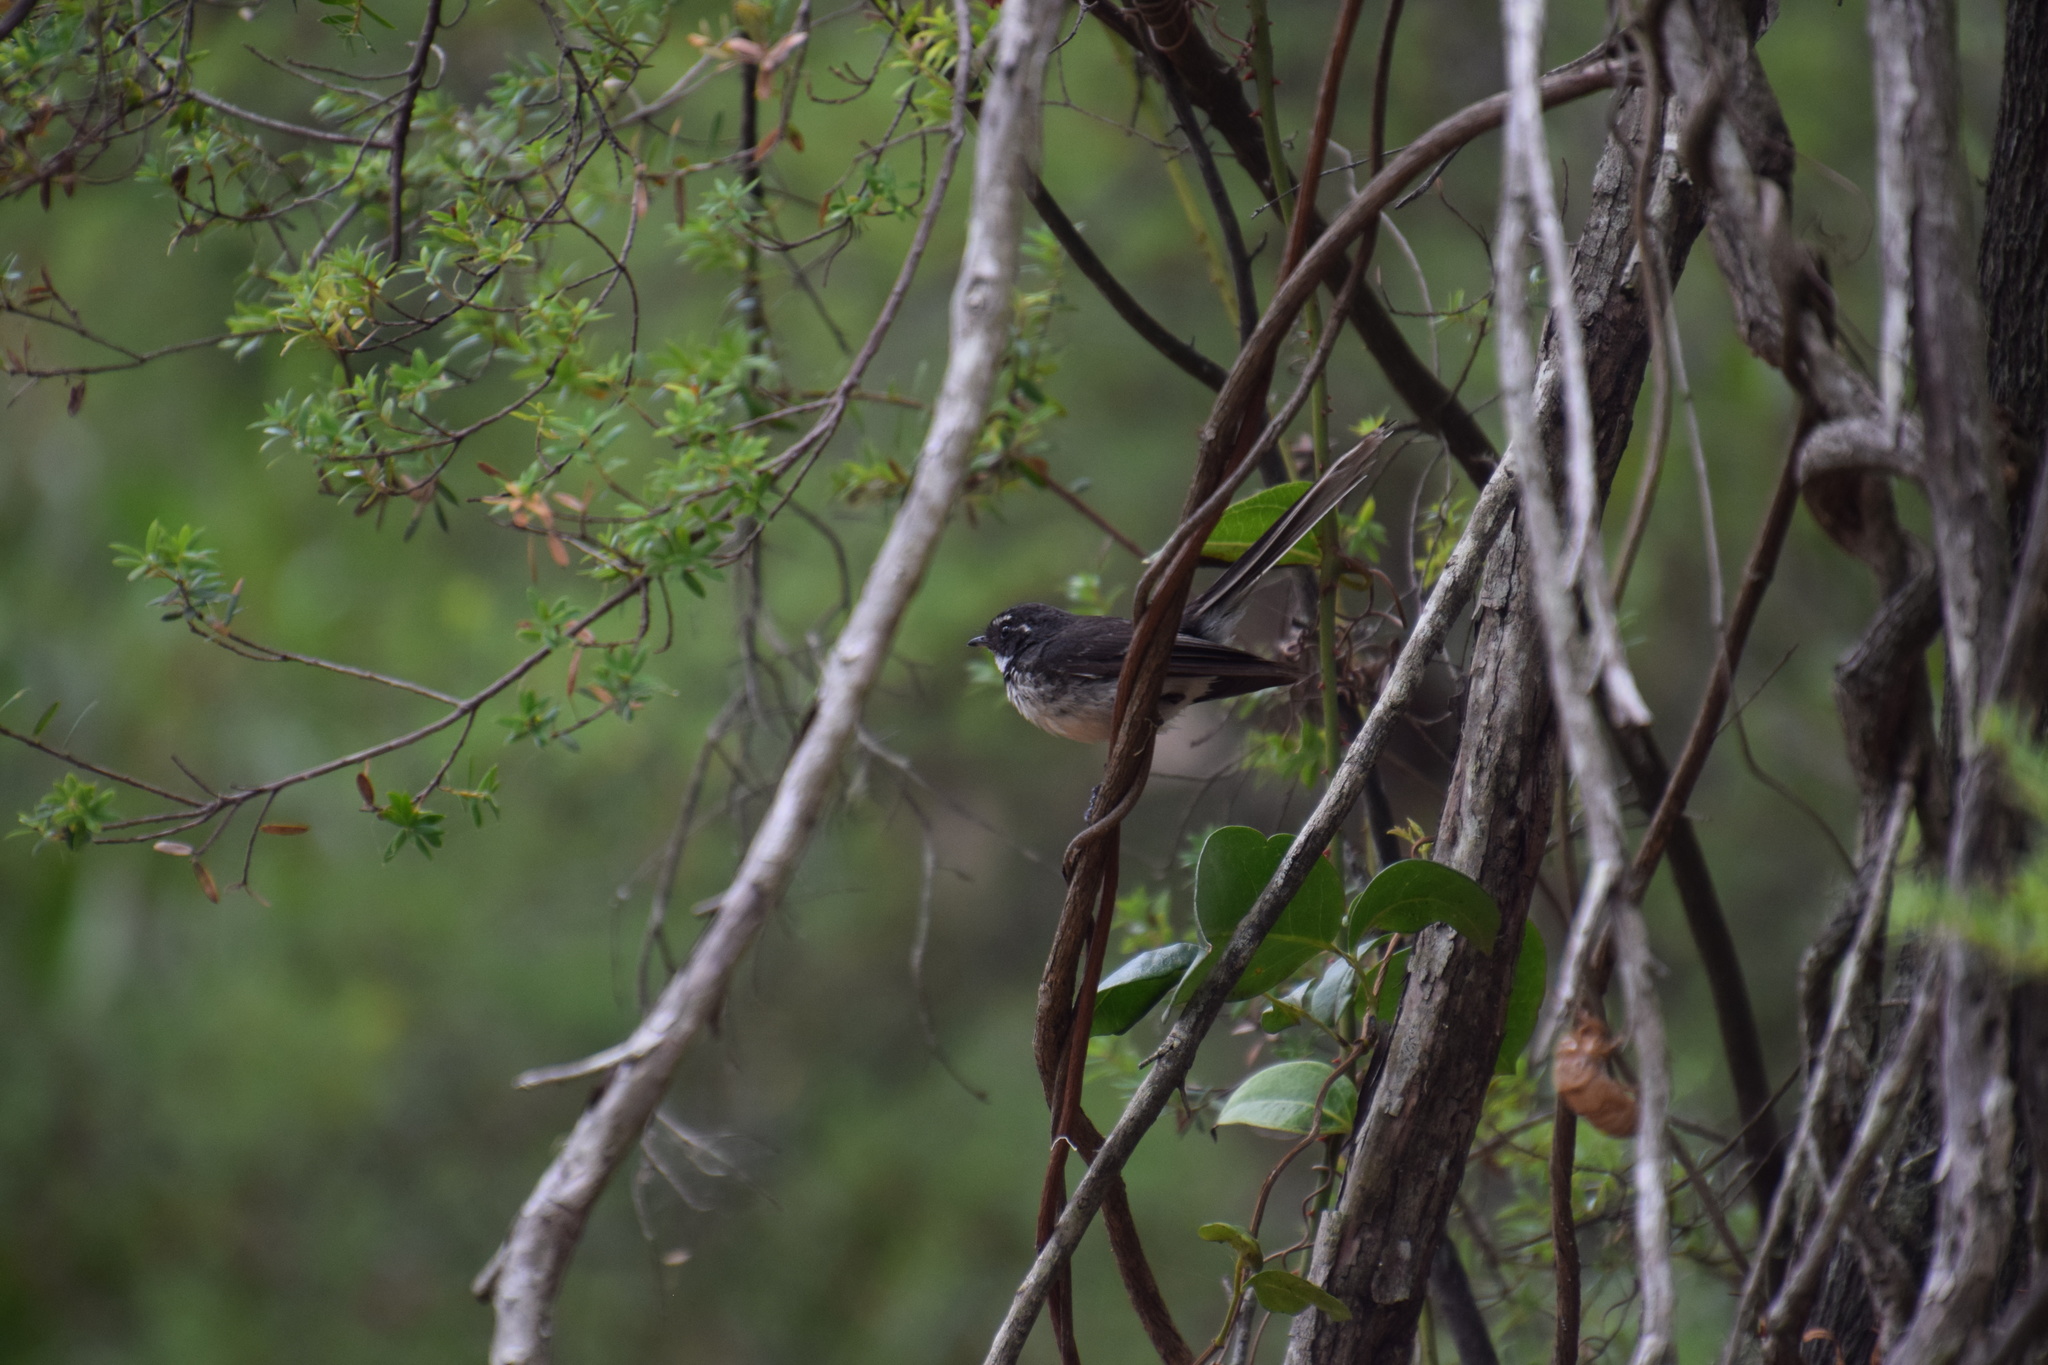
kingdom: Animalia
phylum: Chordata
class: Aves
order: Passeriformes
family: Rhipiduridae
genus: Rhipidura
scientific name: Rhipidura albiscapa
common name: Grey fantail
